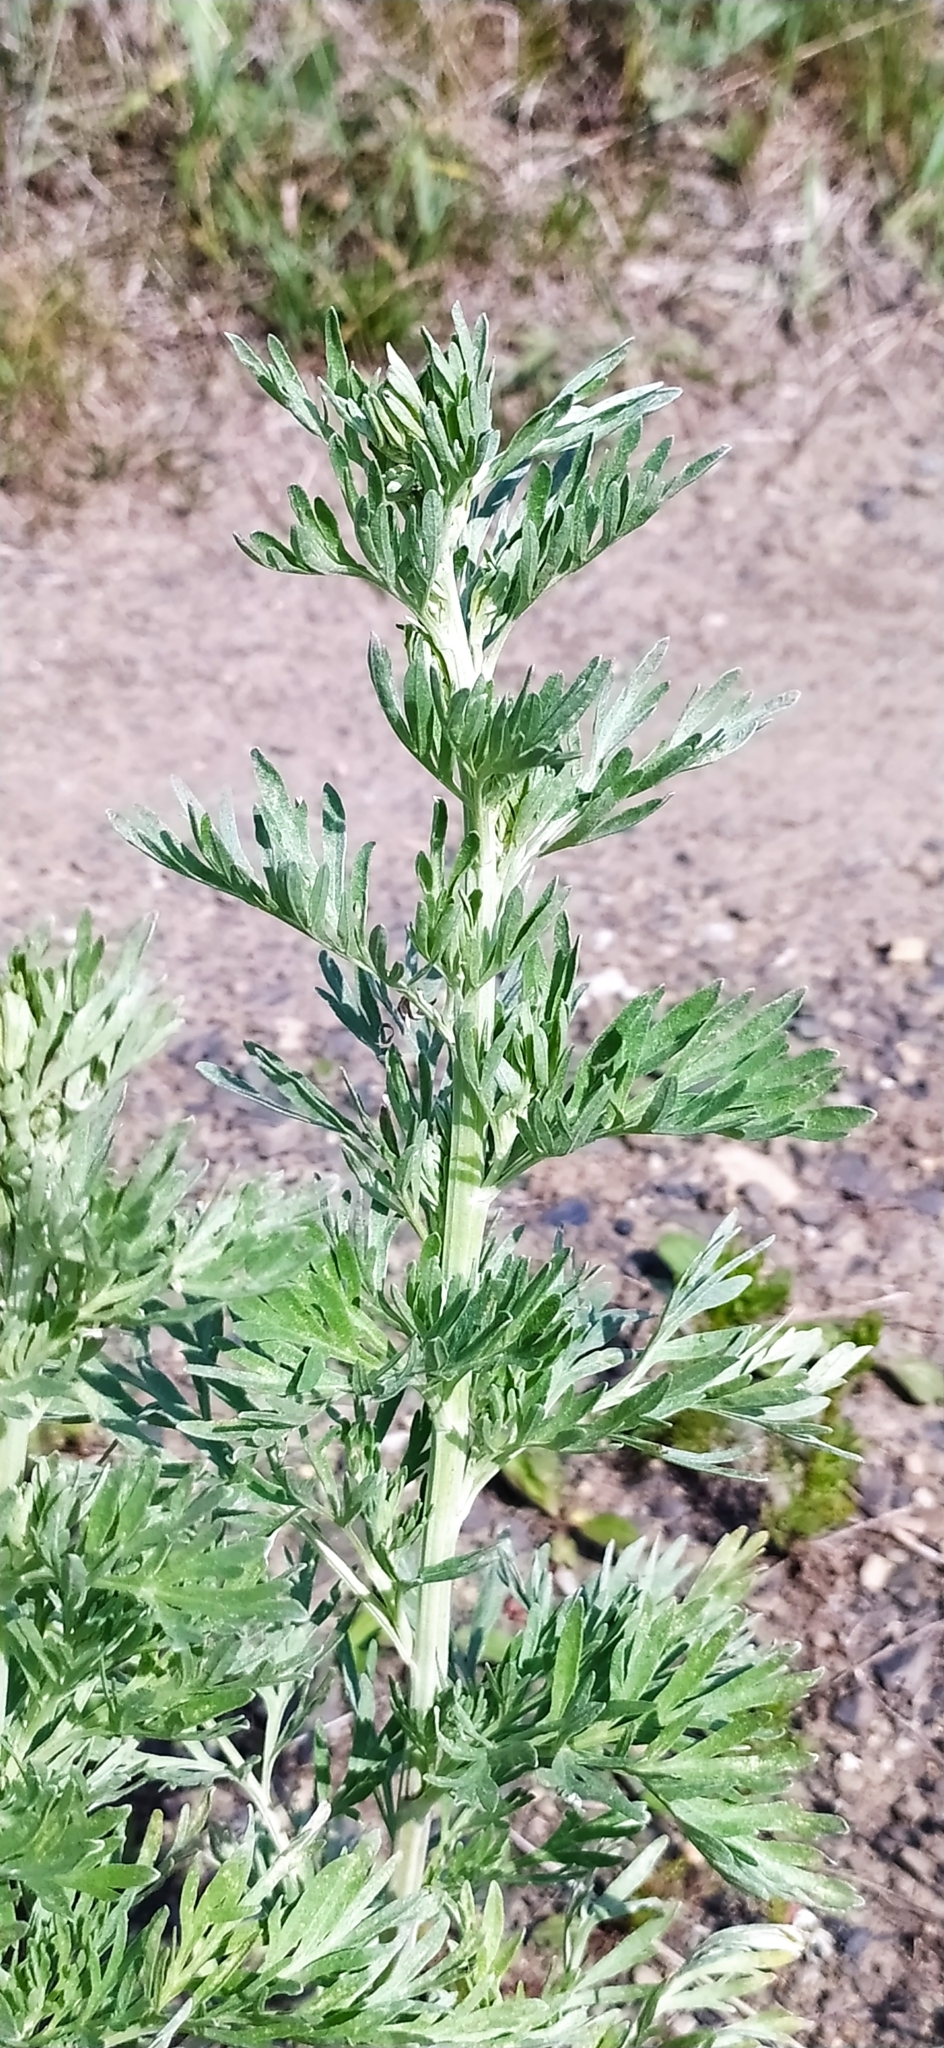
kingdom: Plantae
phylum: Tracheophyta
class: Magnoliopsida
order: Asterales
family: Asteraceae
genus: Artemisia
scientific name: Artemisia absinthium
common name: Wormwood
